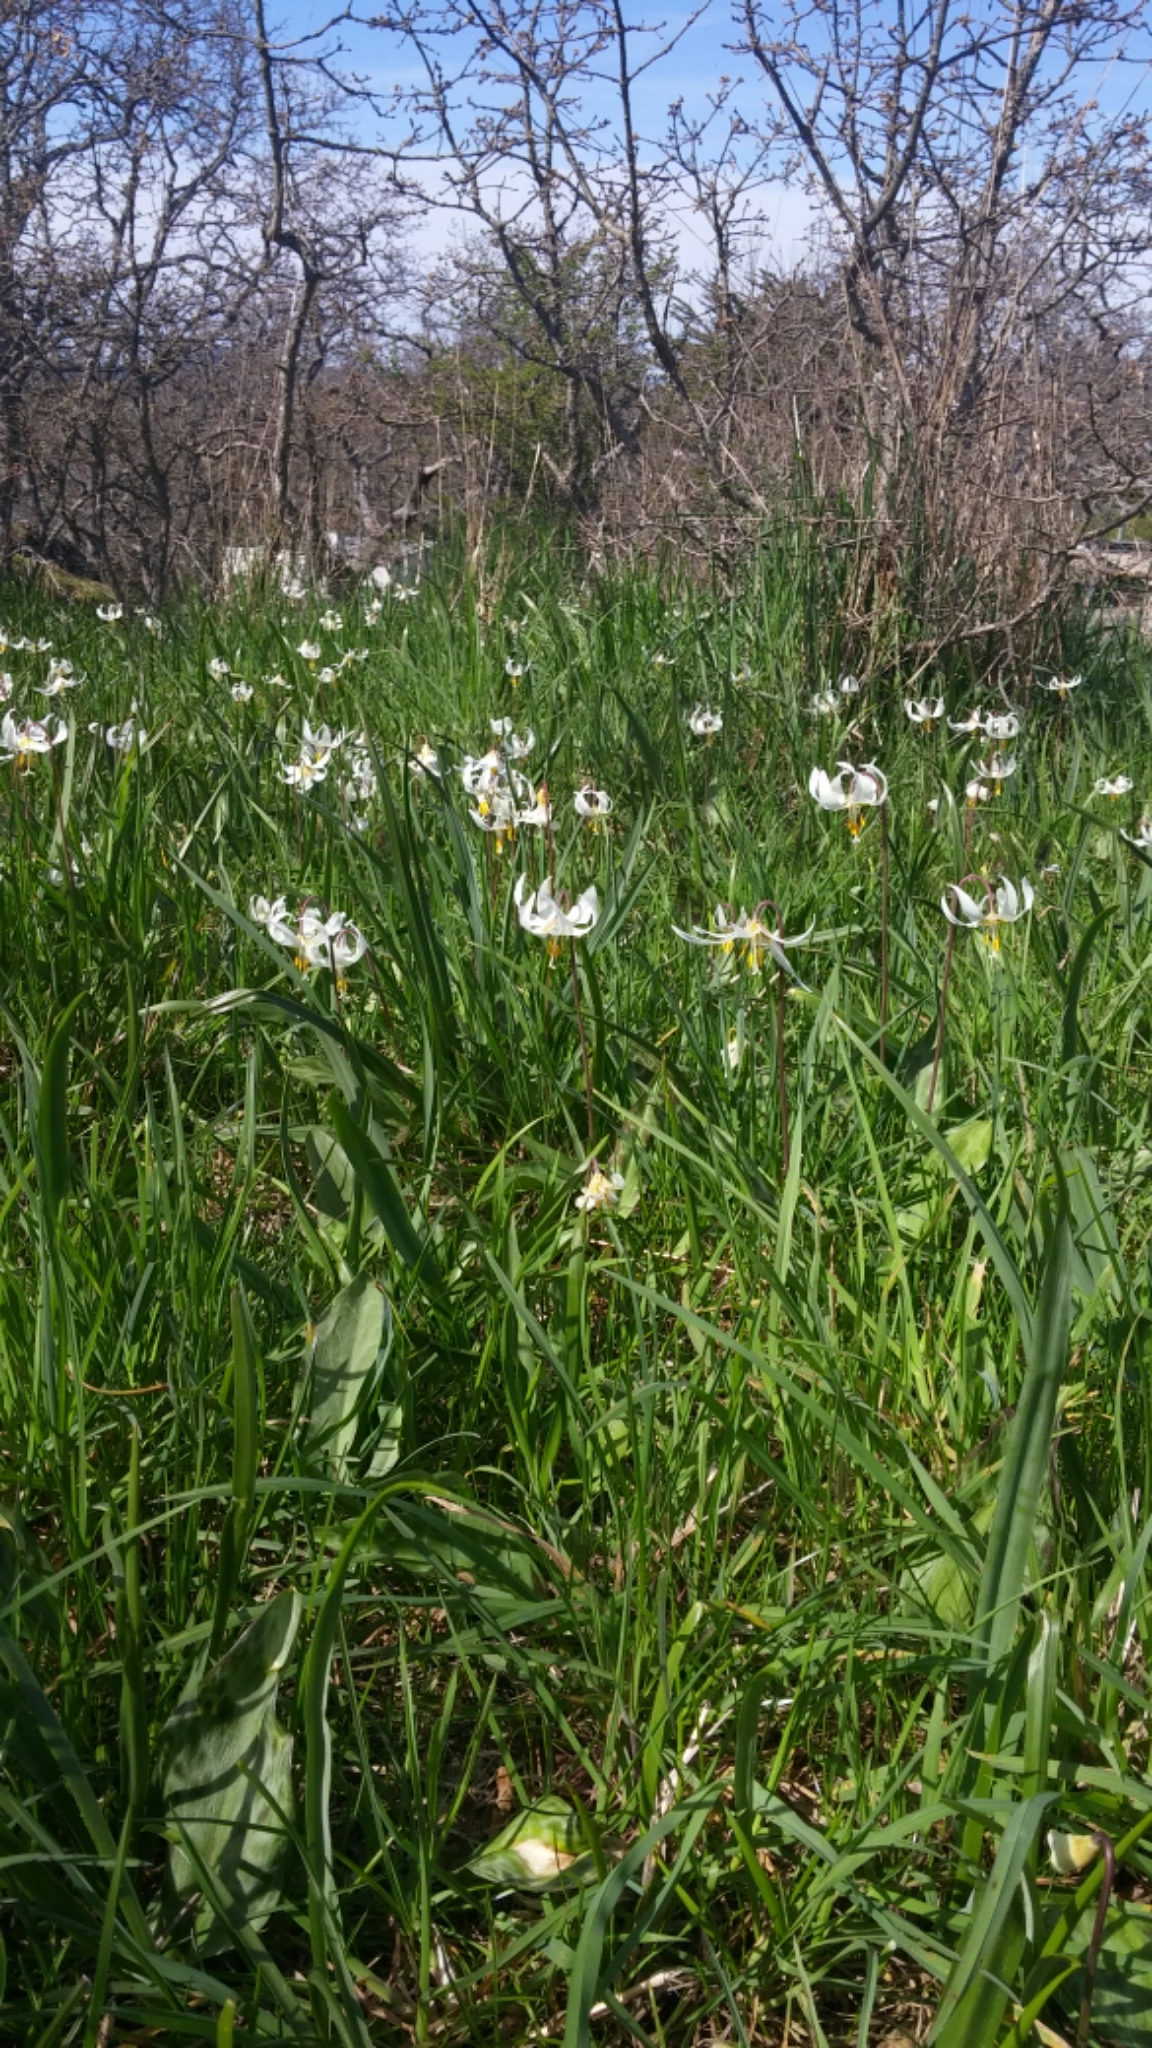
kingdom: Plantae
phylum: Tracheophyta
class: Liliopsida
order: Liliales
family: Liliaceae
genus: Erythronium
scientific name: Erythronium oregonum
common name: Giant adder's-tongue
